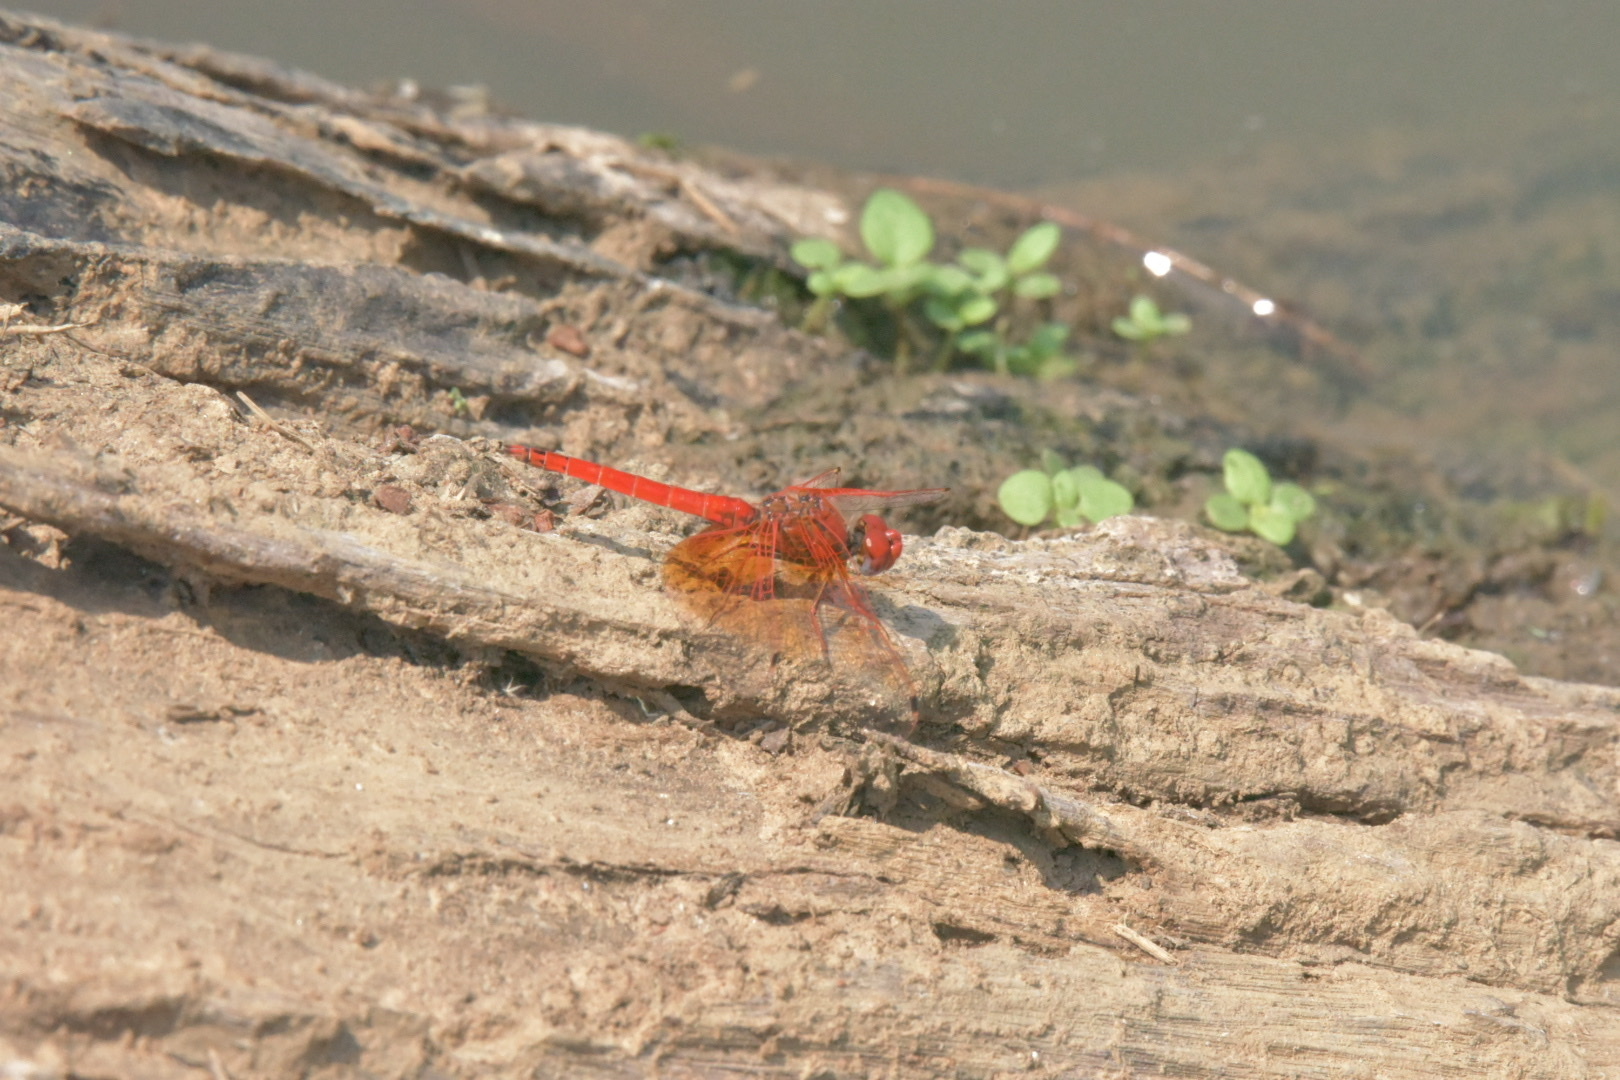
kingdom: Animalia
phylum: Arthropoda
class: Insecta
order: Odonata
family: Libellulidae
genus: Trithemis
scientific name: Trithemis kirbyi
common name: Kirby's dropwing
